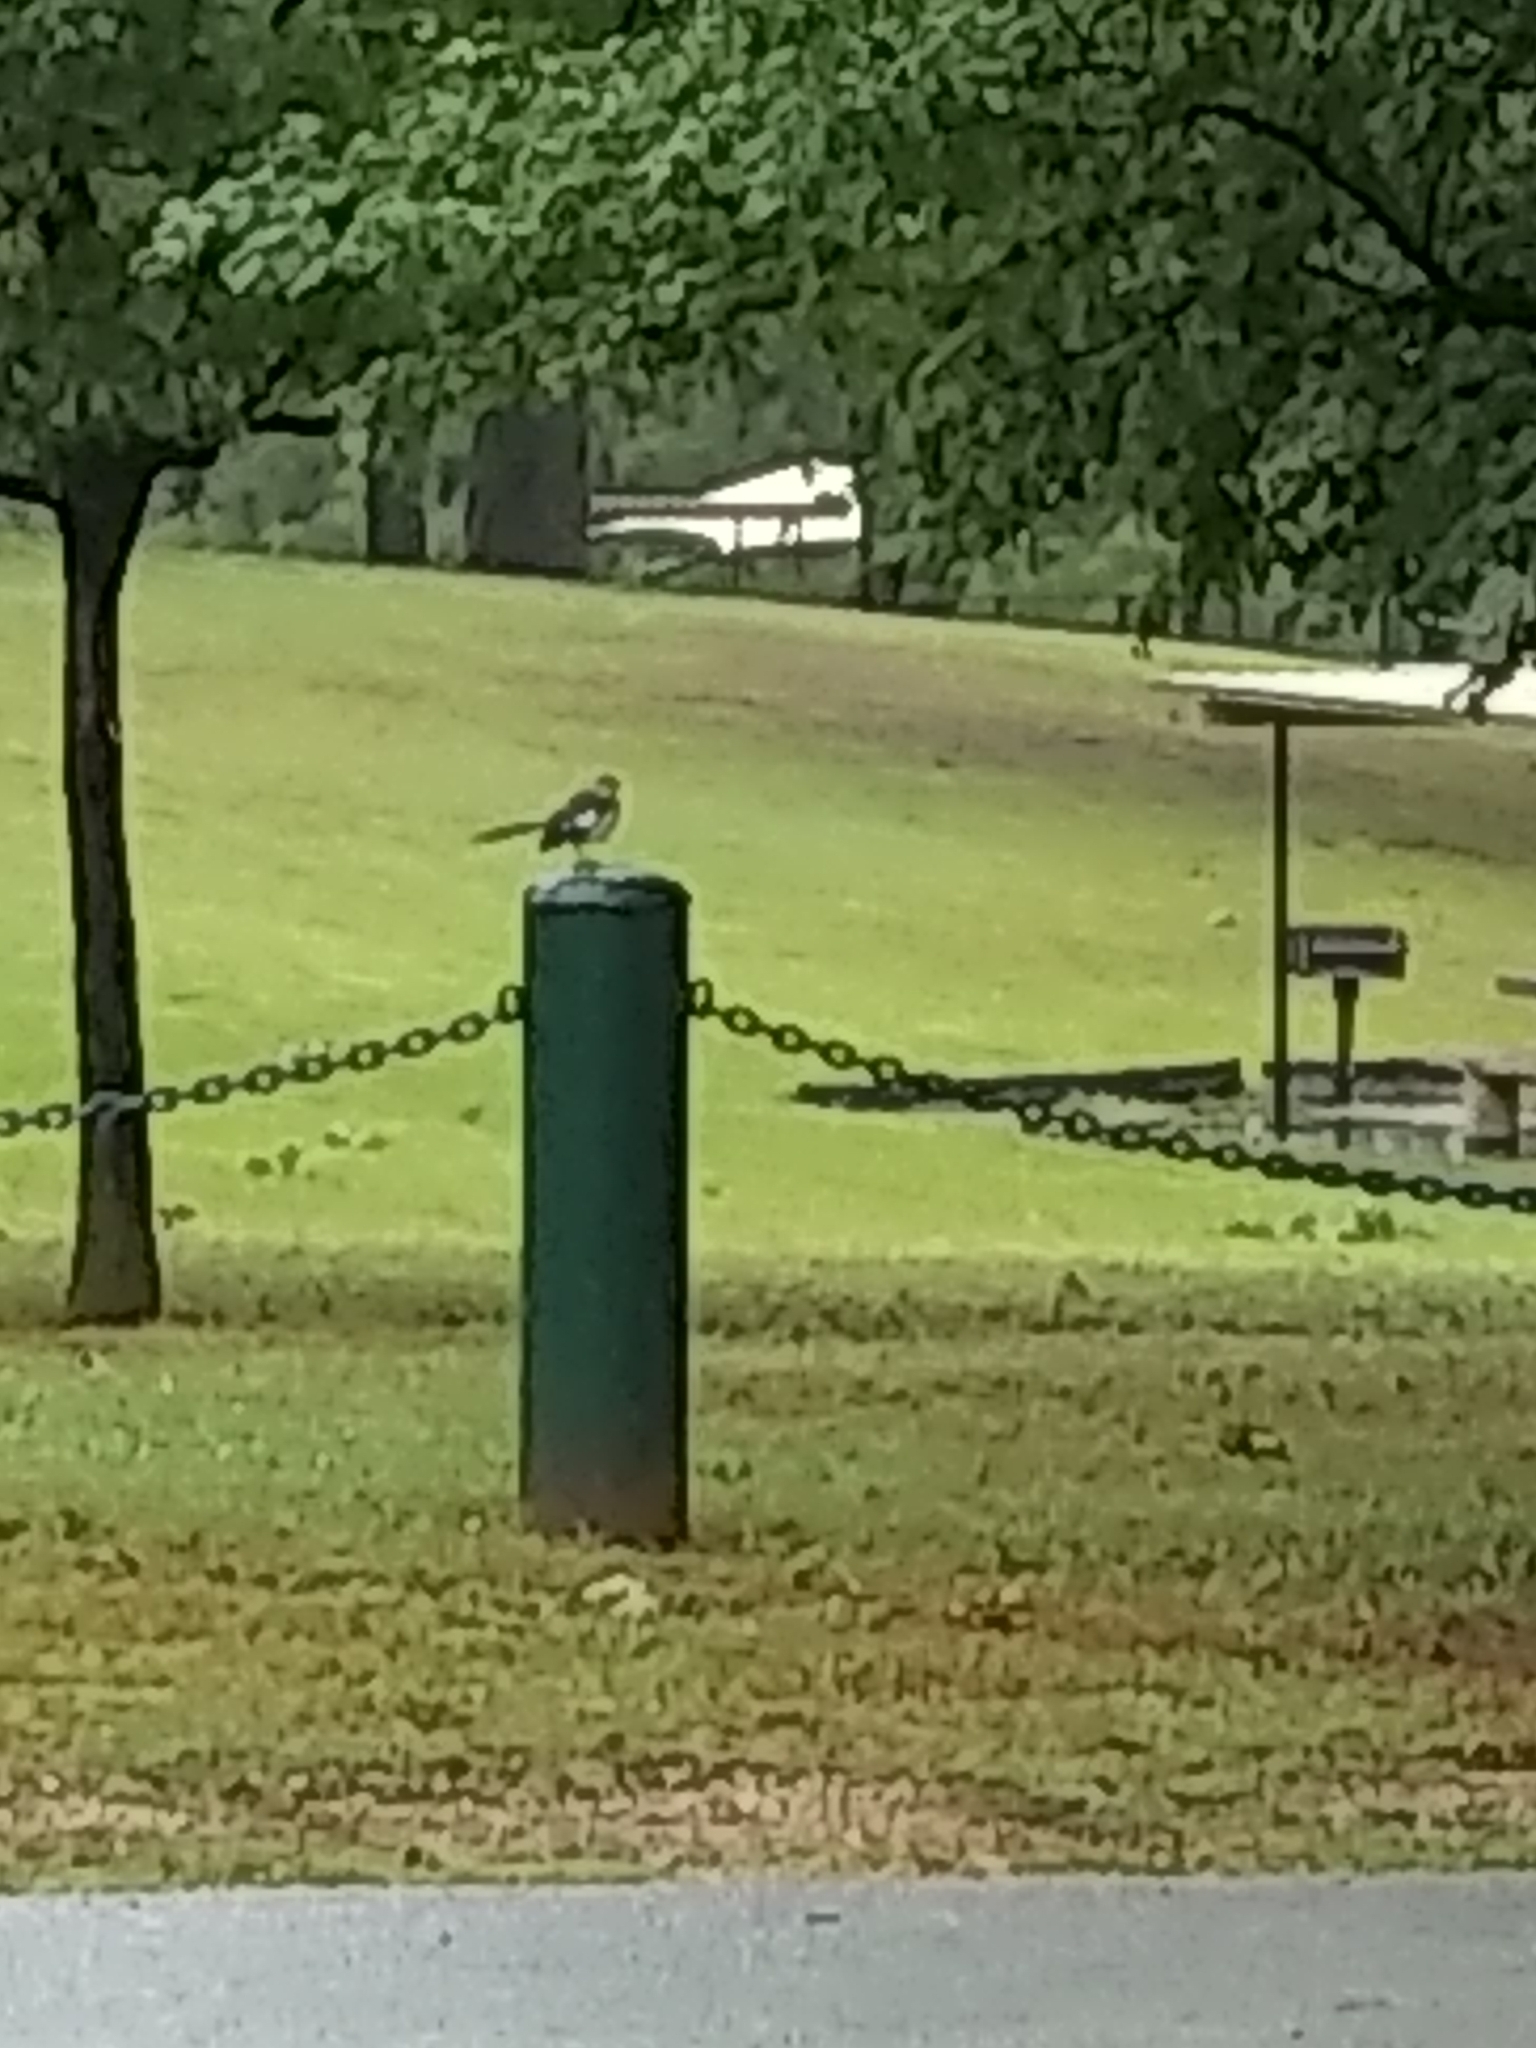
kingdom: Animalia
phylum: Chordata
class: Aves
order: Passeriformes
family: Mimidae
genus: Mimus
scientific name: Mimus polyglottos
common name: Northern mockingbird
